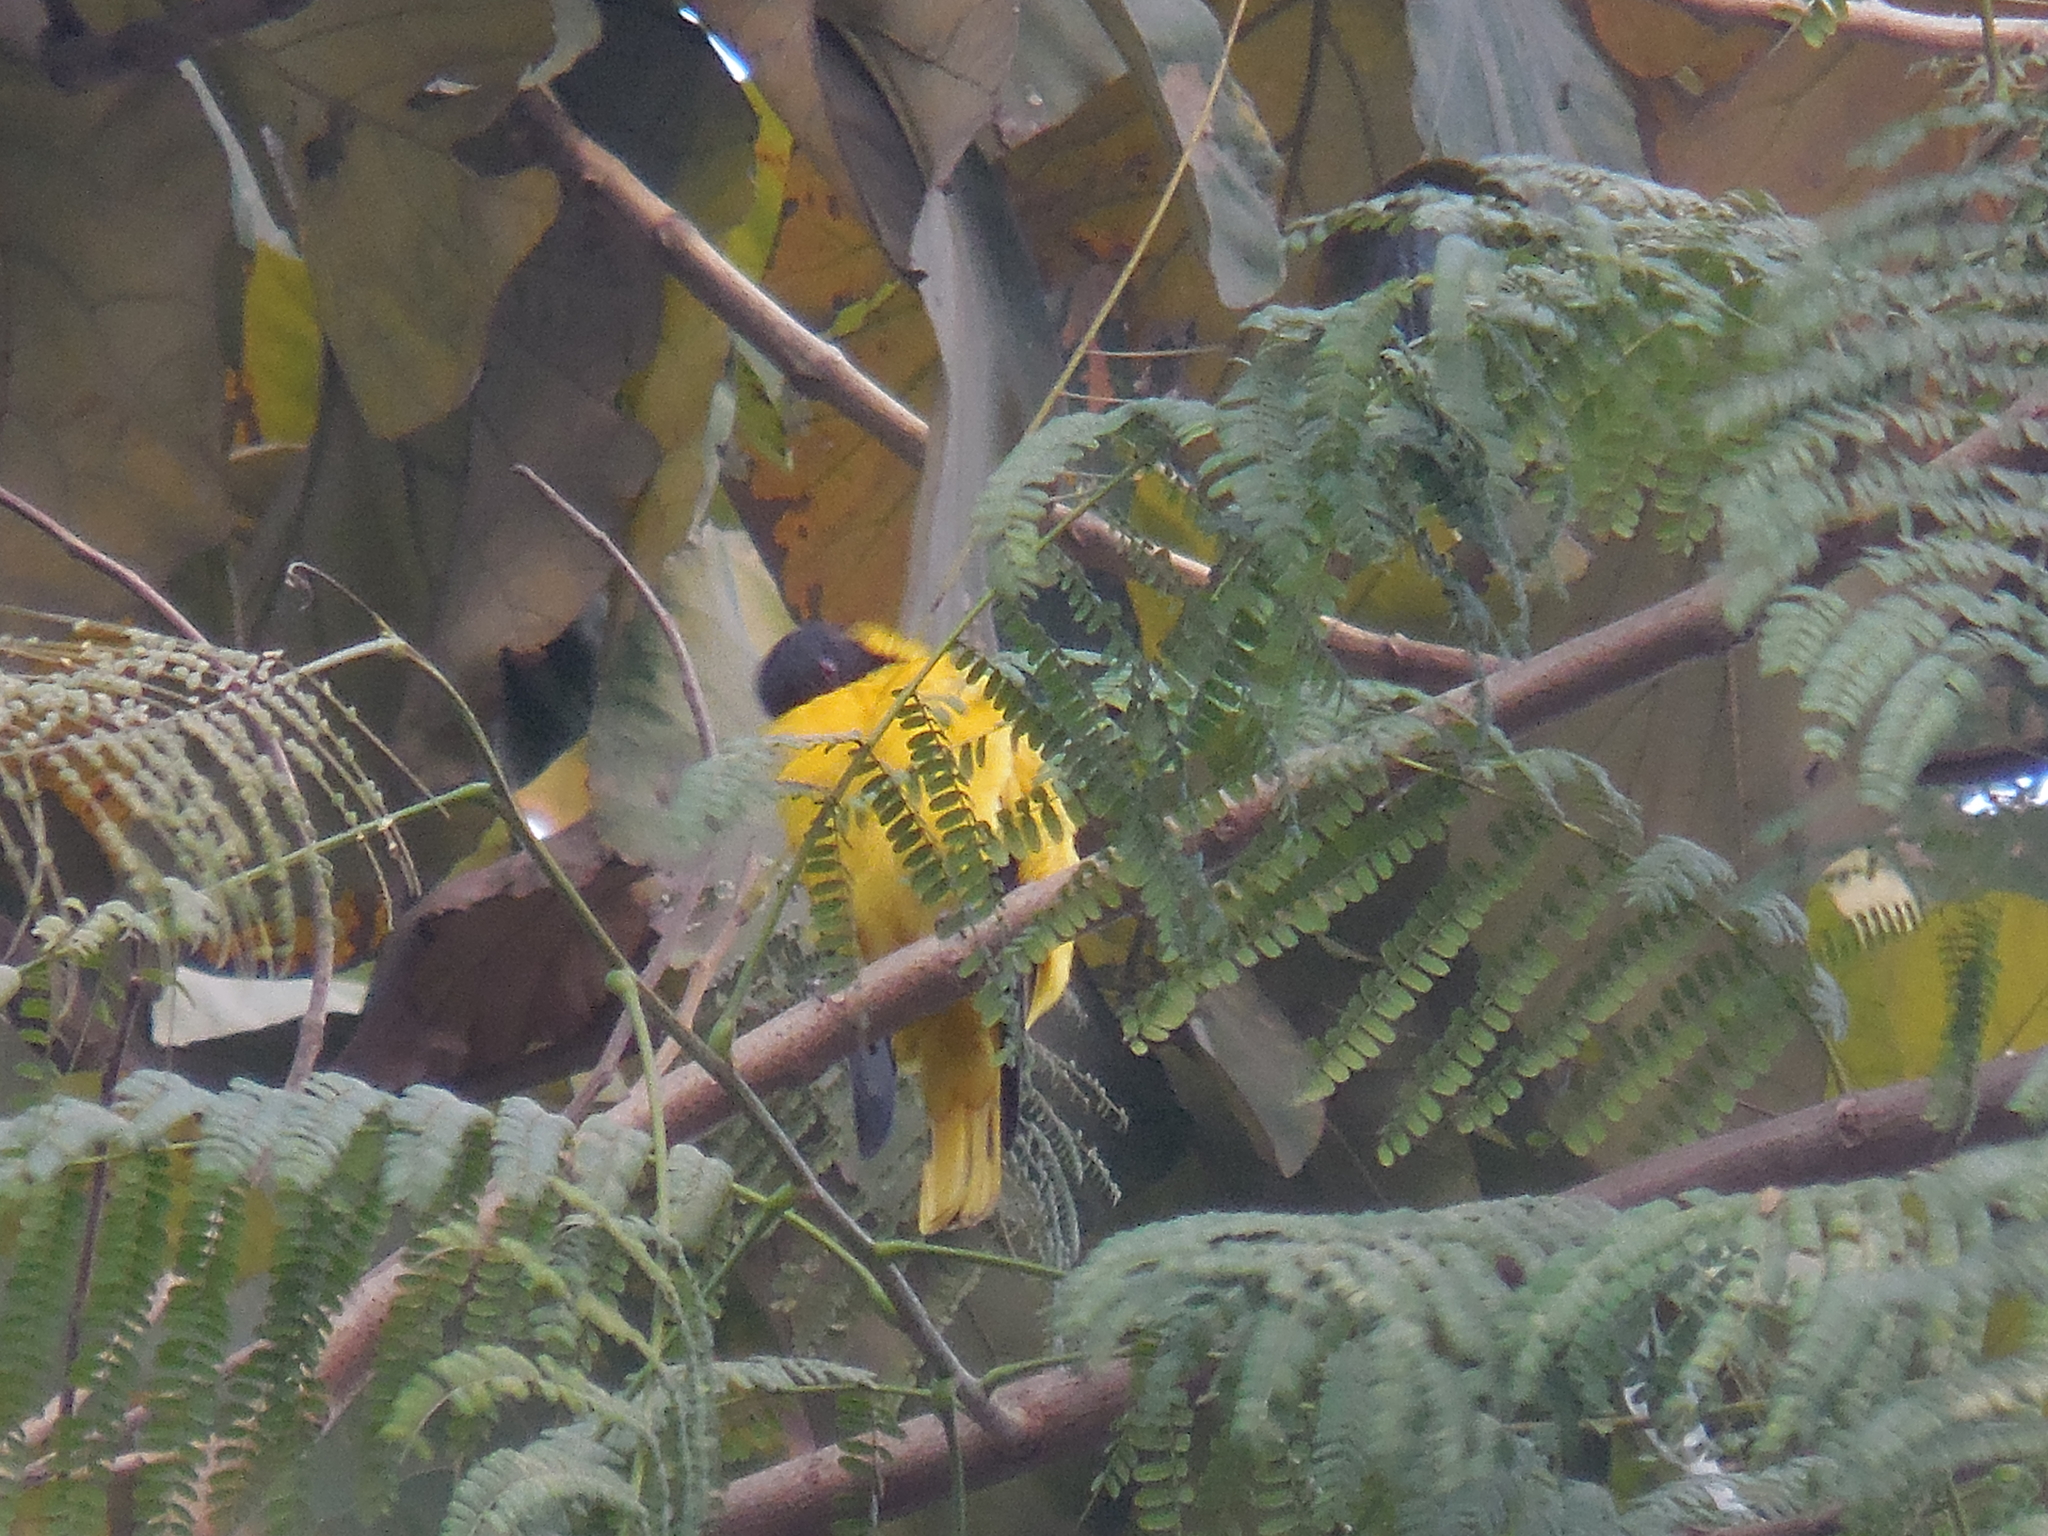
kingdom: Animalia
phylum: Chordata
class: Aves
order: Passeriformes
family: Oriolidae
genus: Oriolus
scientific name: Oriolus xanthornus
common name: Black-hooded oriole
